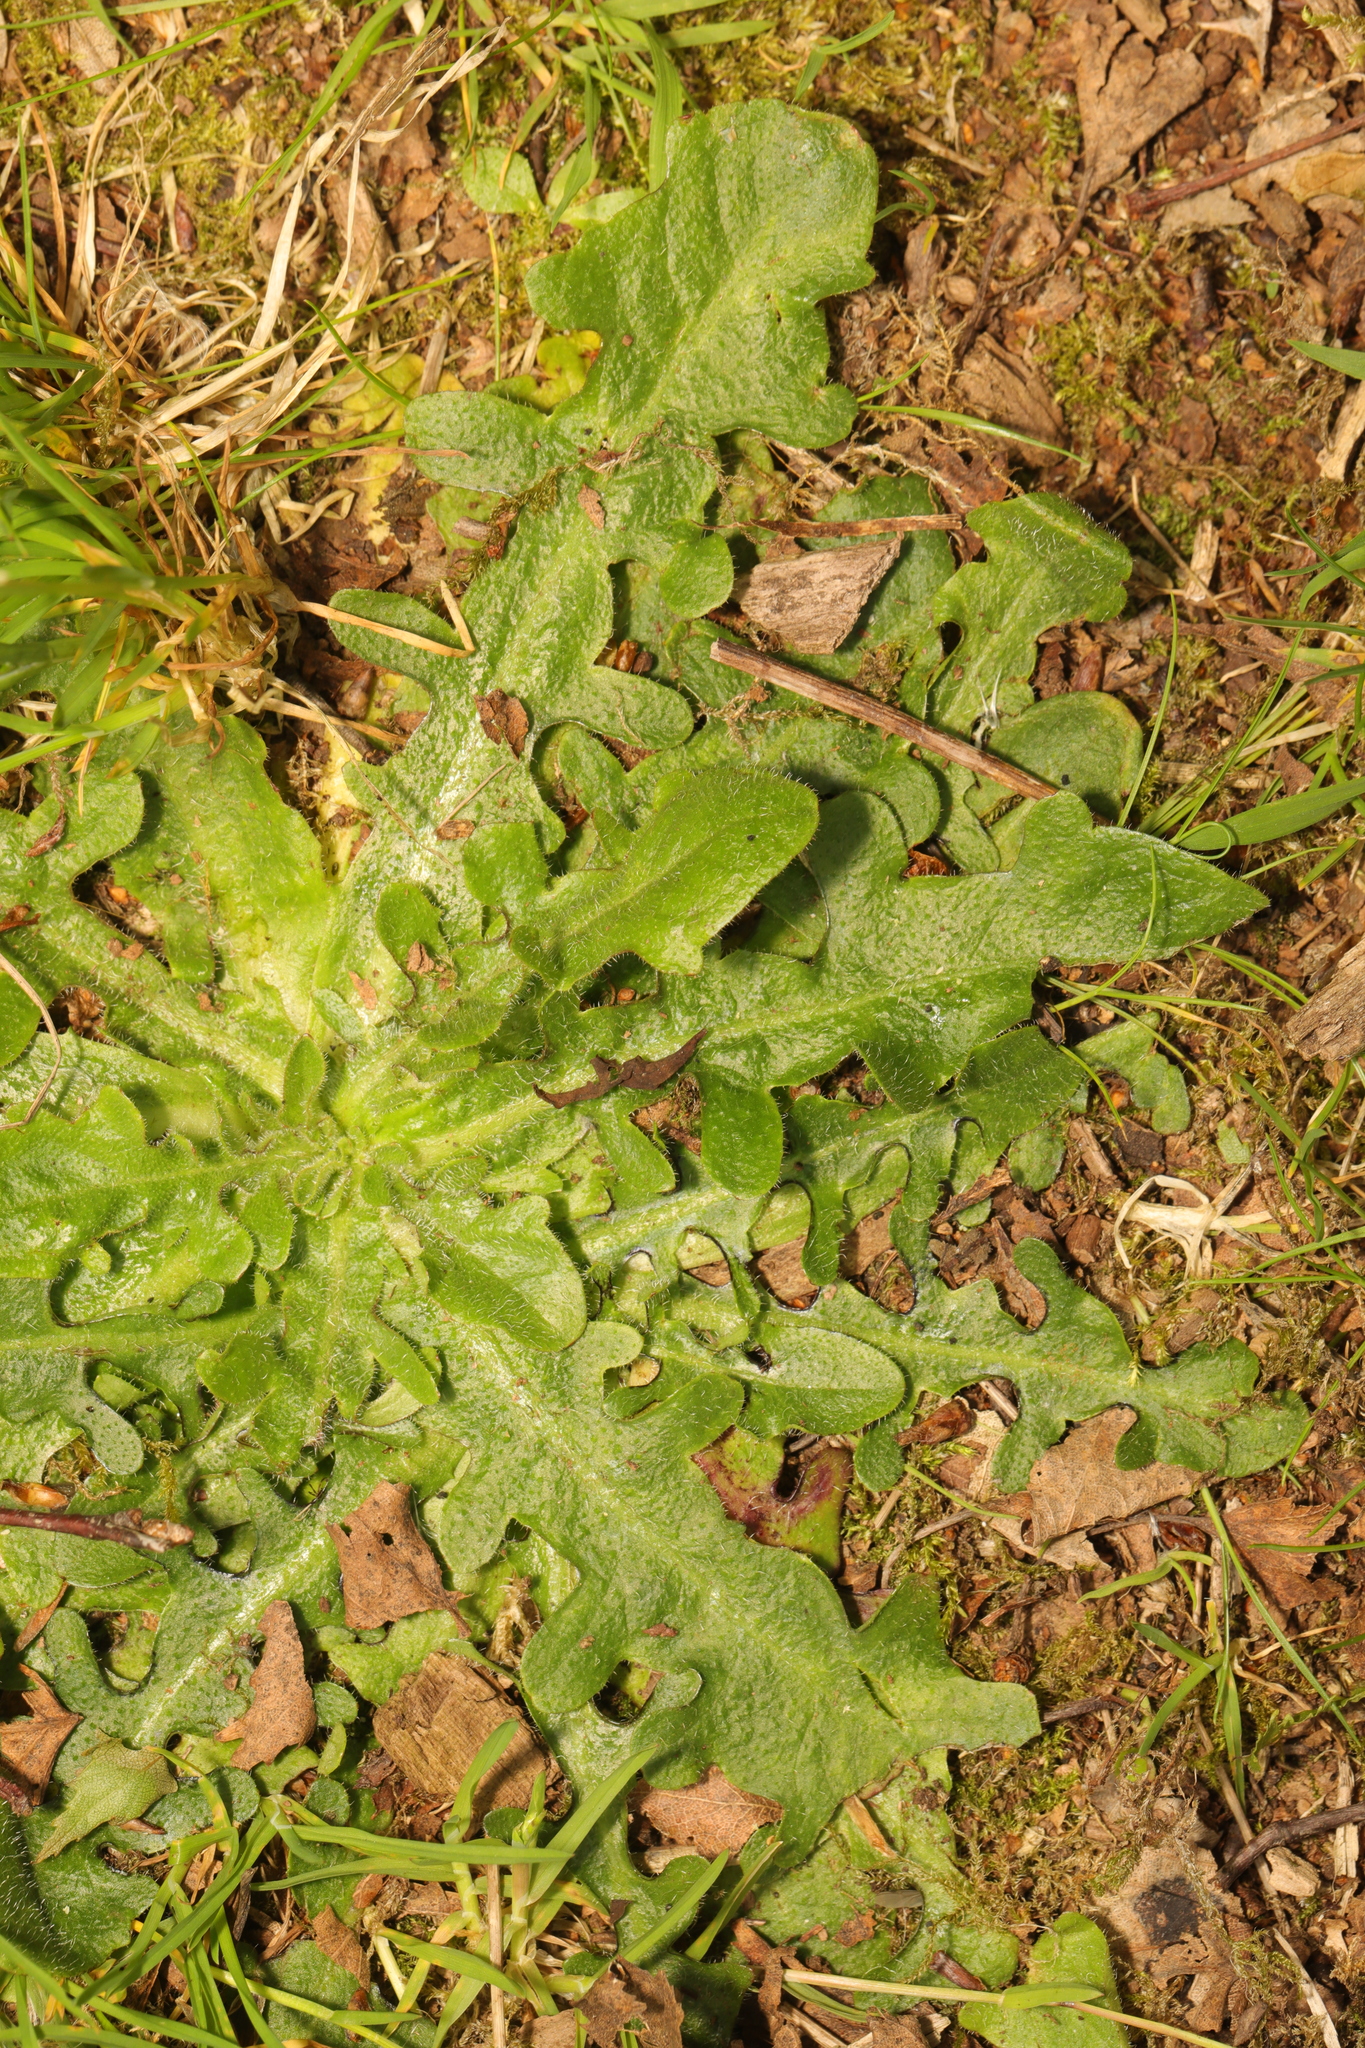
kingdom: Plantae
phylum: Tracheophyta
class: Magnoliopsida
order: Asterales
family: Asteraceae
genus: Hypochaeris
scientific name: Hypochaeris radicata
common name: Flatweed
